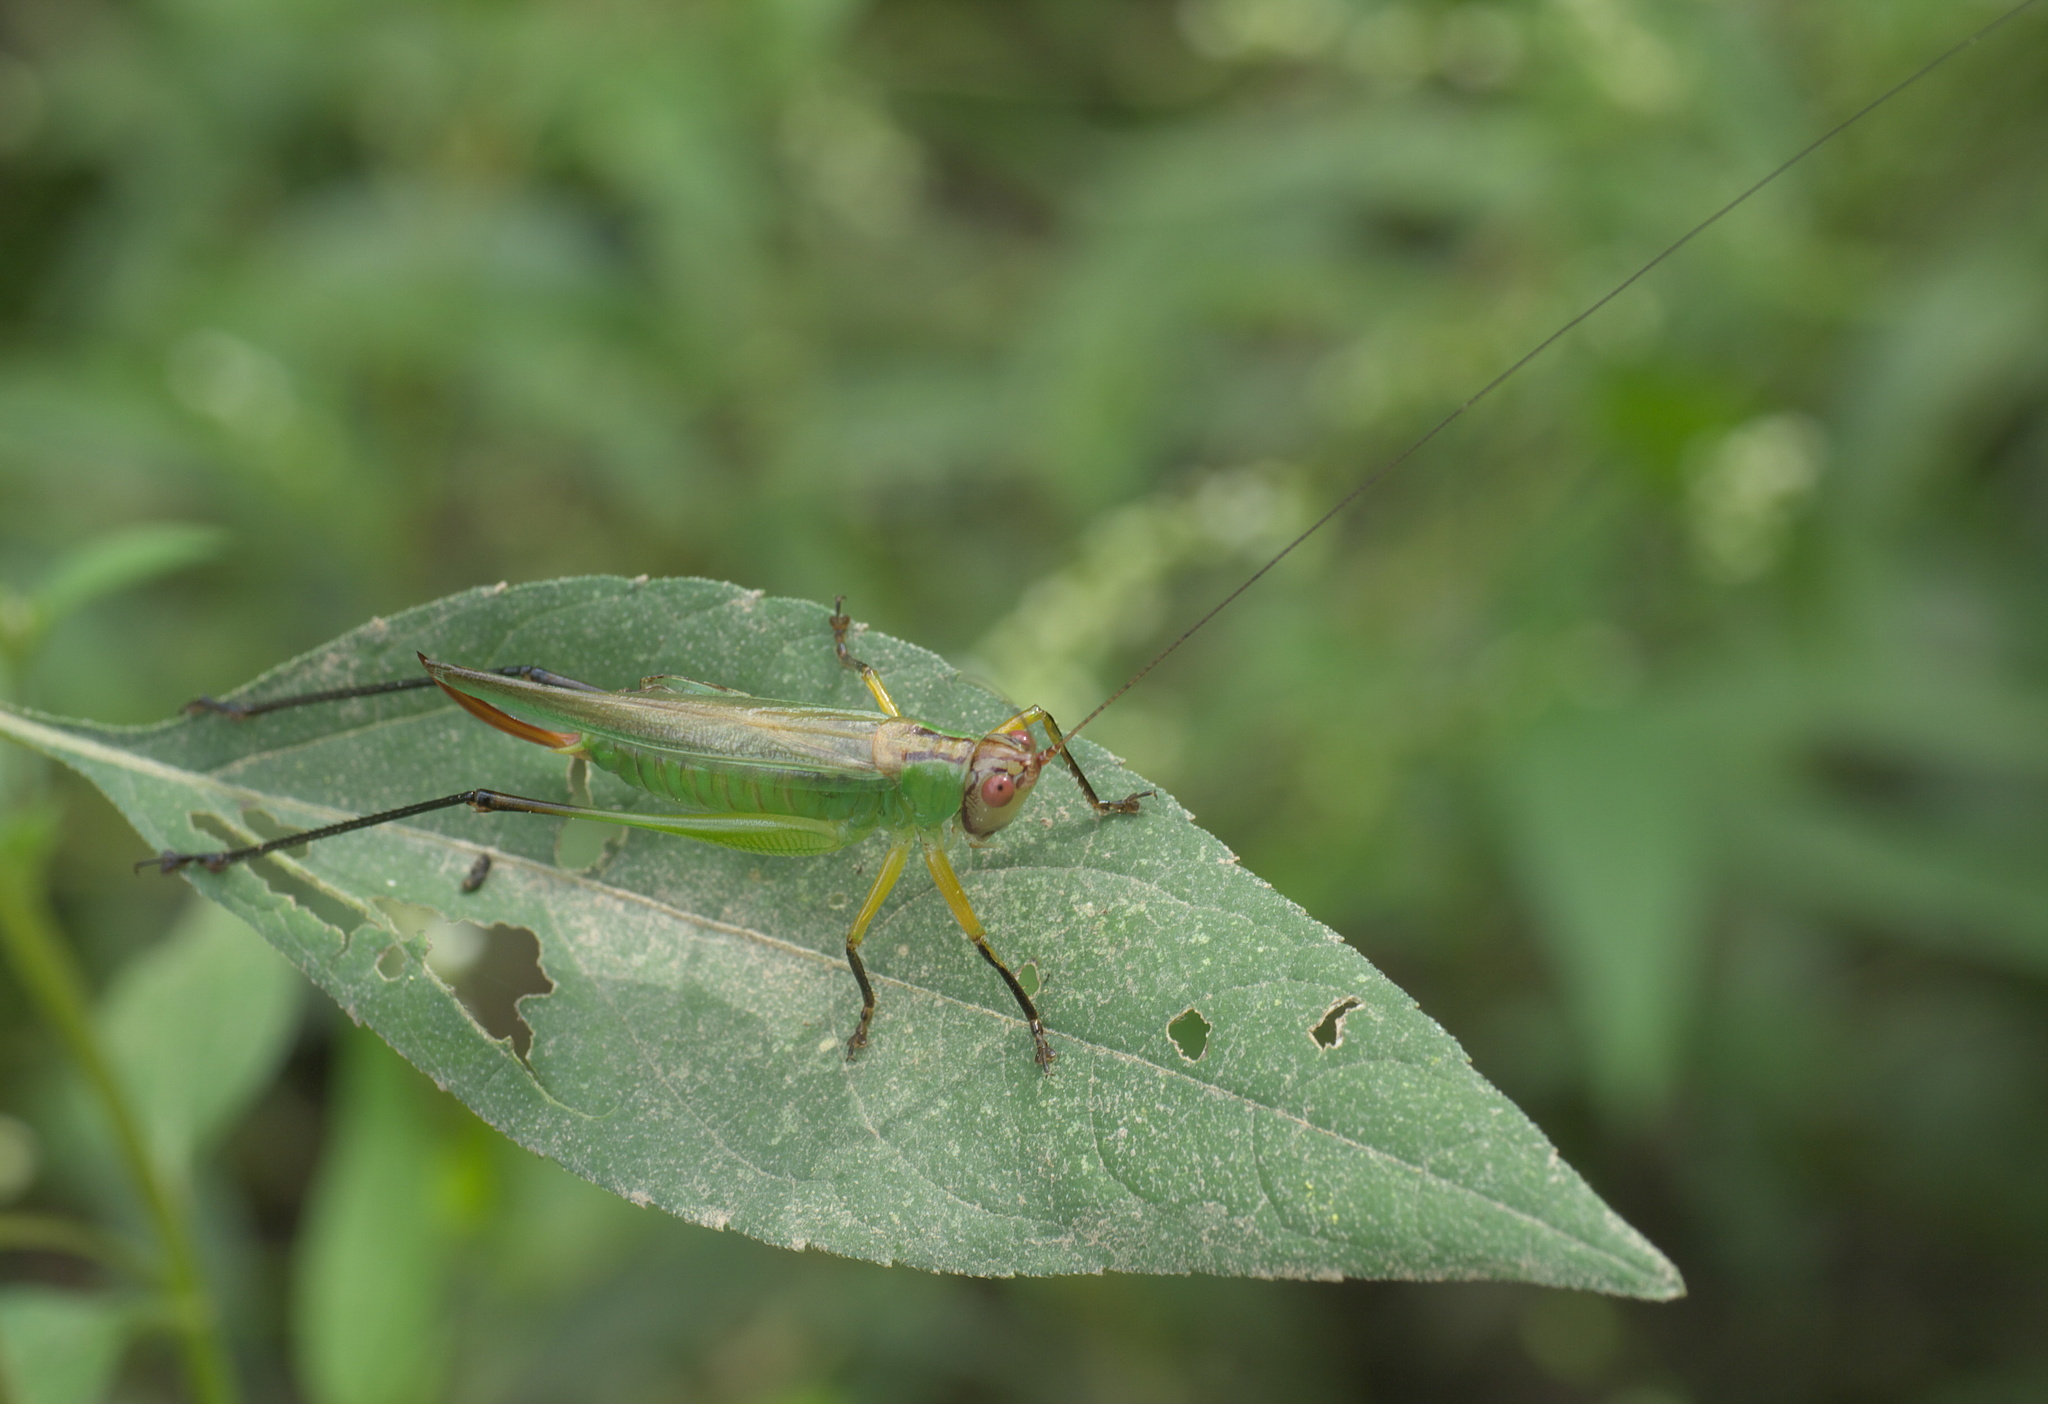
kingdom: Animalia
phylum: Arthropoda
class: Insecta
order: Orthoptera
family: Tettigoniidae
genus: Orchelimum
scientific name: Orchelimum nigripes
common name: Black-legged meadow katydid
